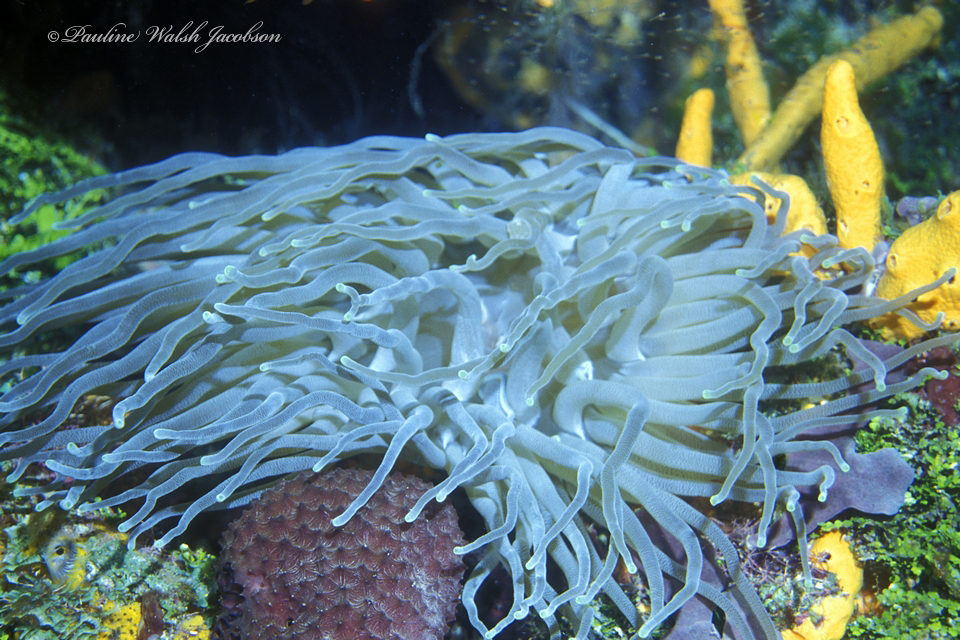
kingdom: Animalia
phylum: Cnidaria
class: Anthozoa
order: Actiniaria
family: Actiniidae
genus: Condylactis
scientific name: Condylactis gigantea
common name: Giant caribbean anemone
